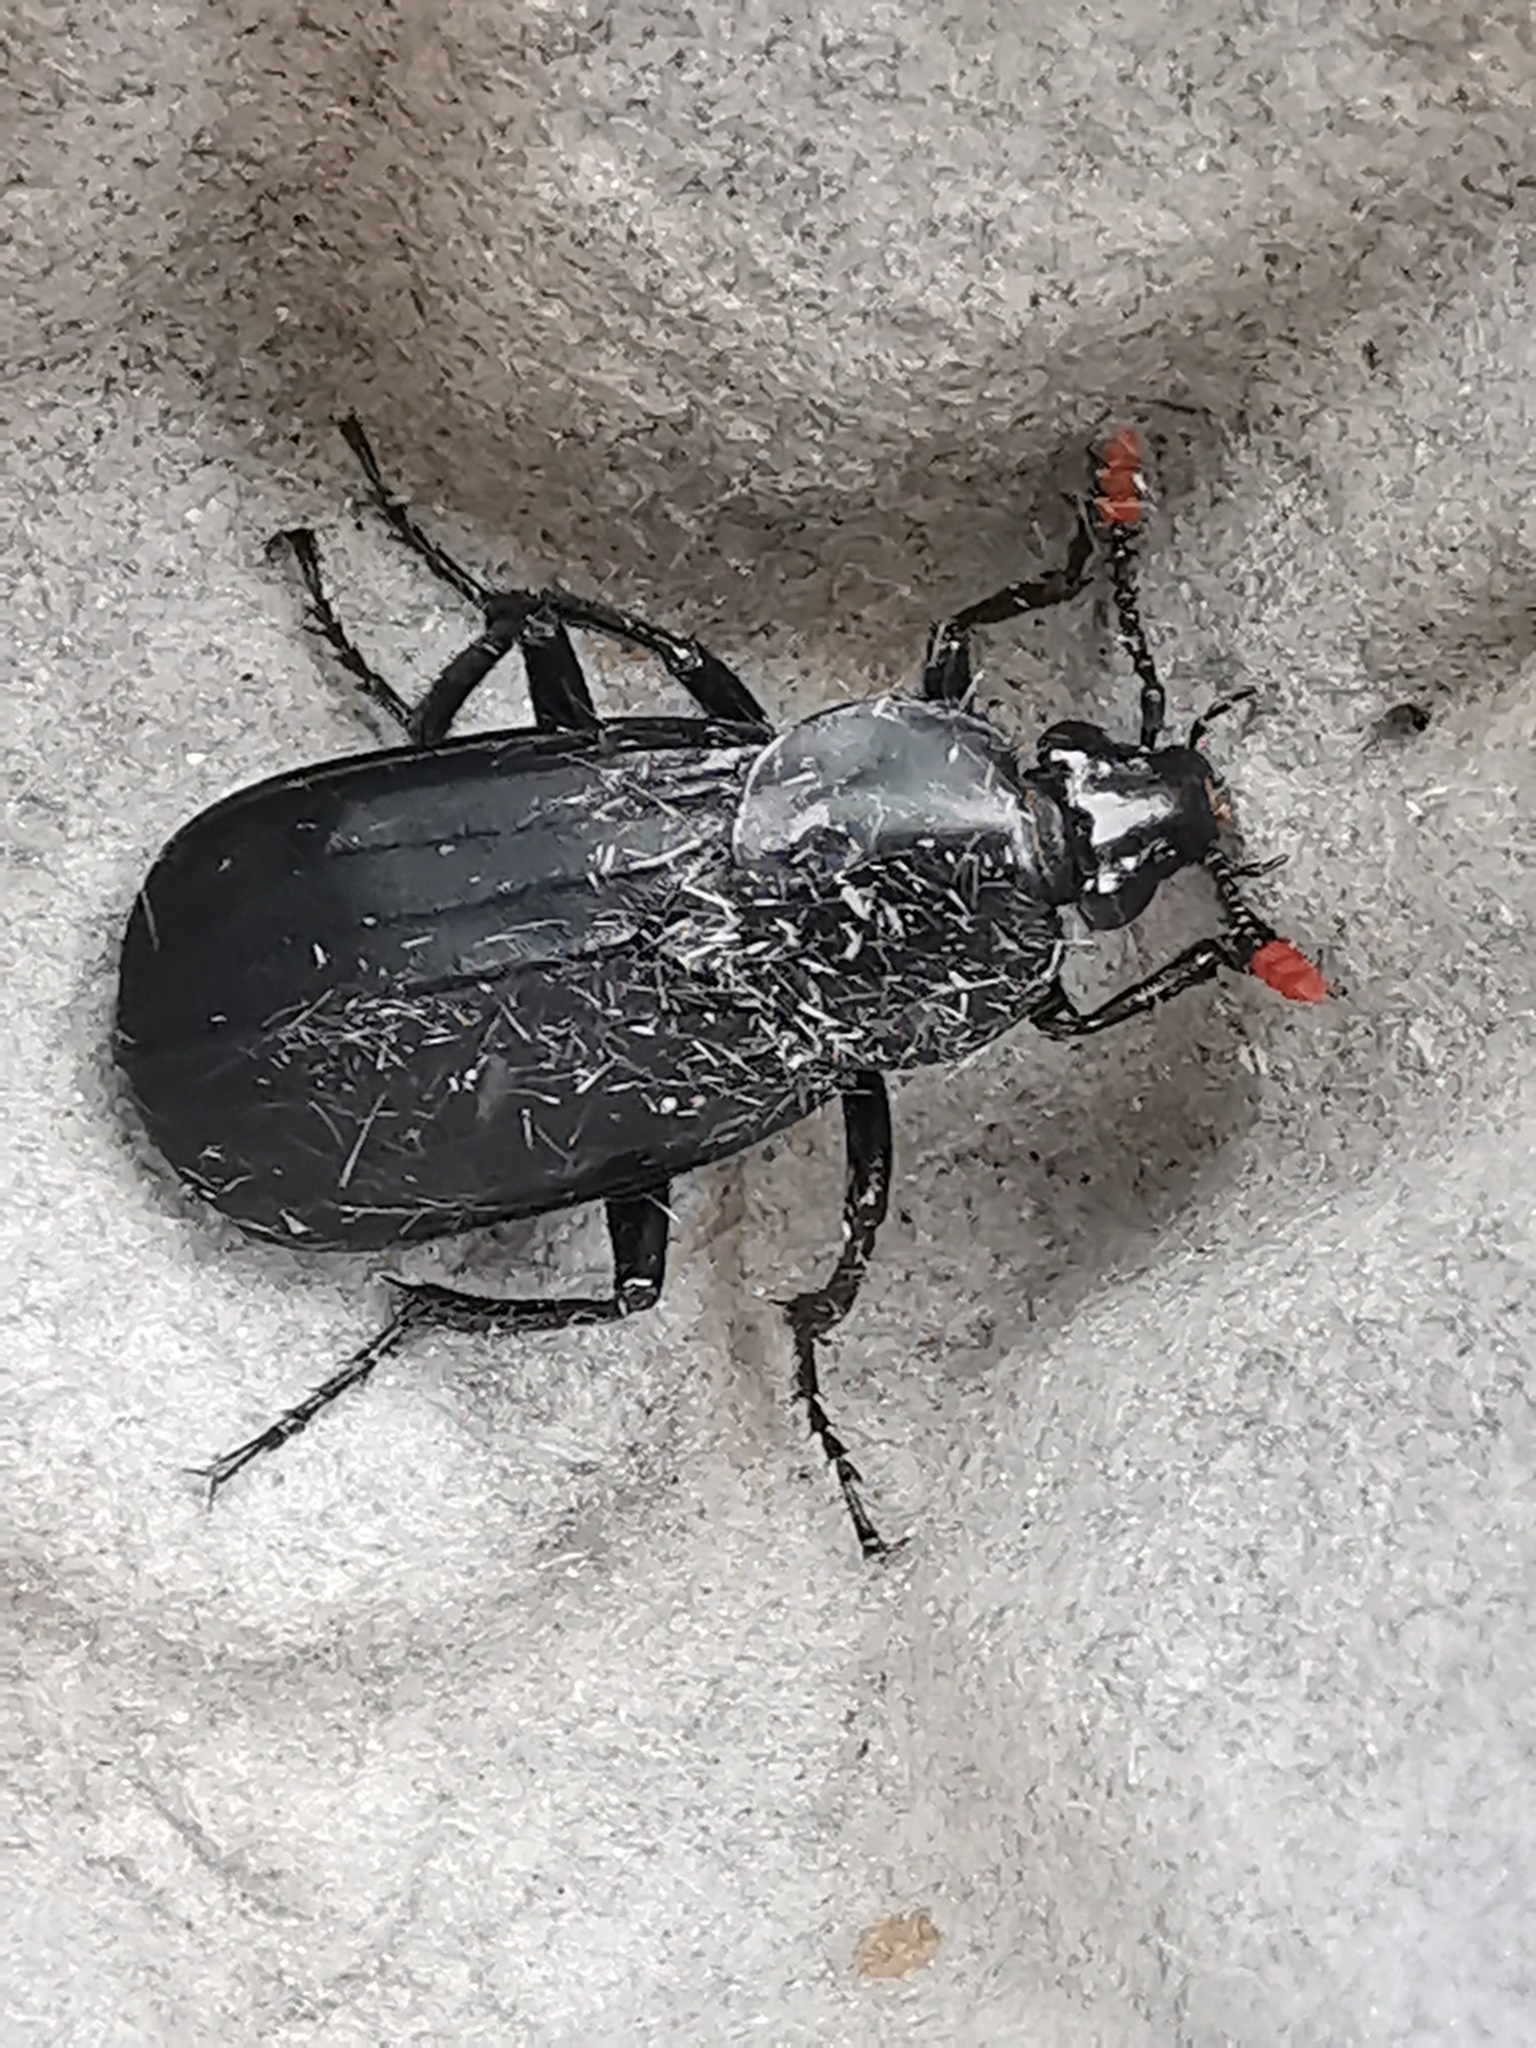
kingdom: Animalia
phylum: Arthropoda
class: Insecta
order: Coleoptera
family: Staphylinidae
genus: Necrodes
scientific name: Necrodes littoralis
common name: Shore sexton beetle
